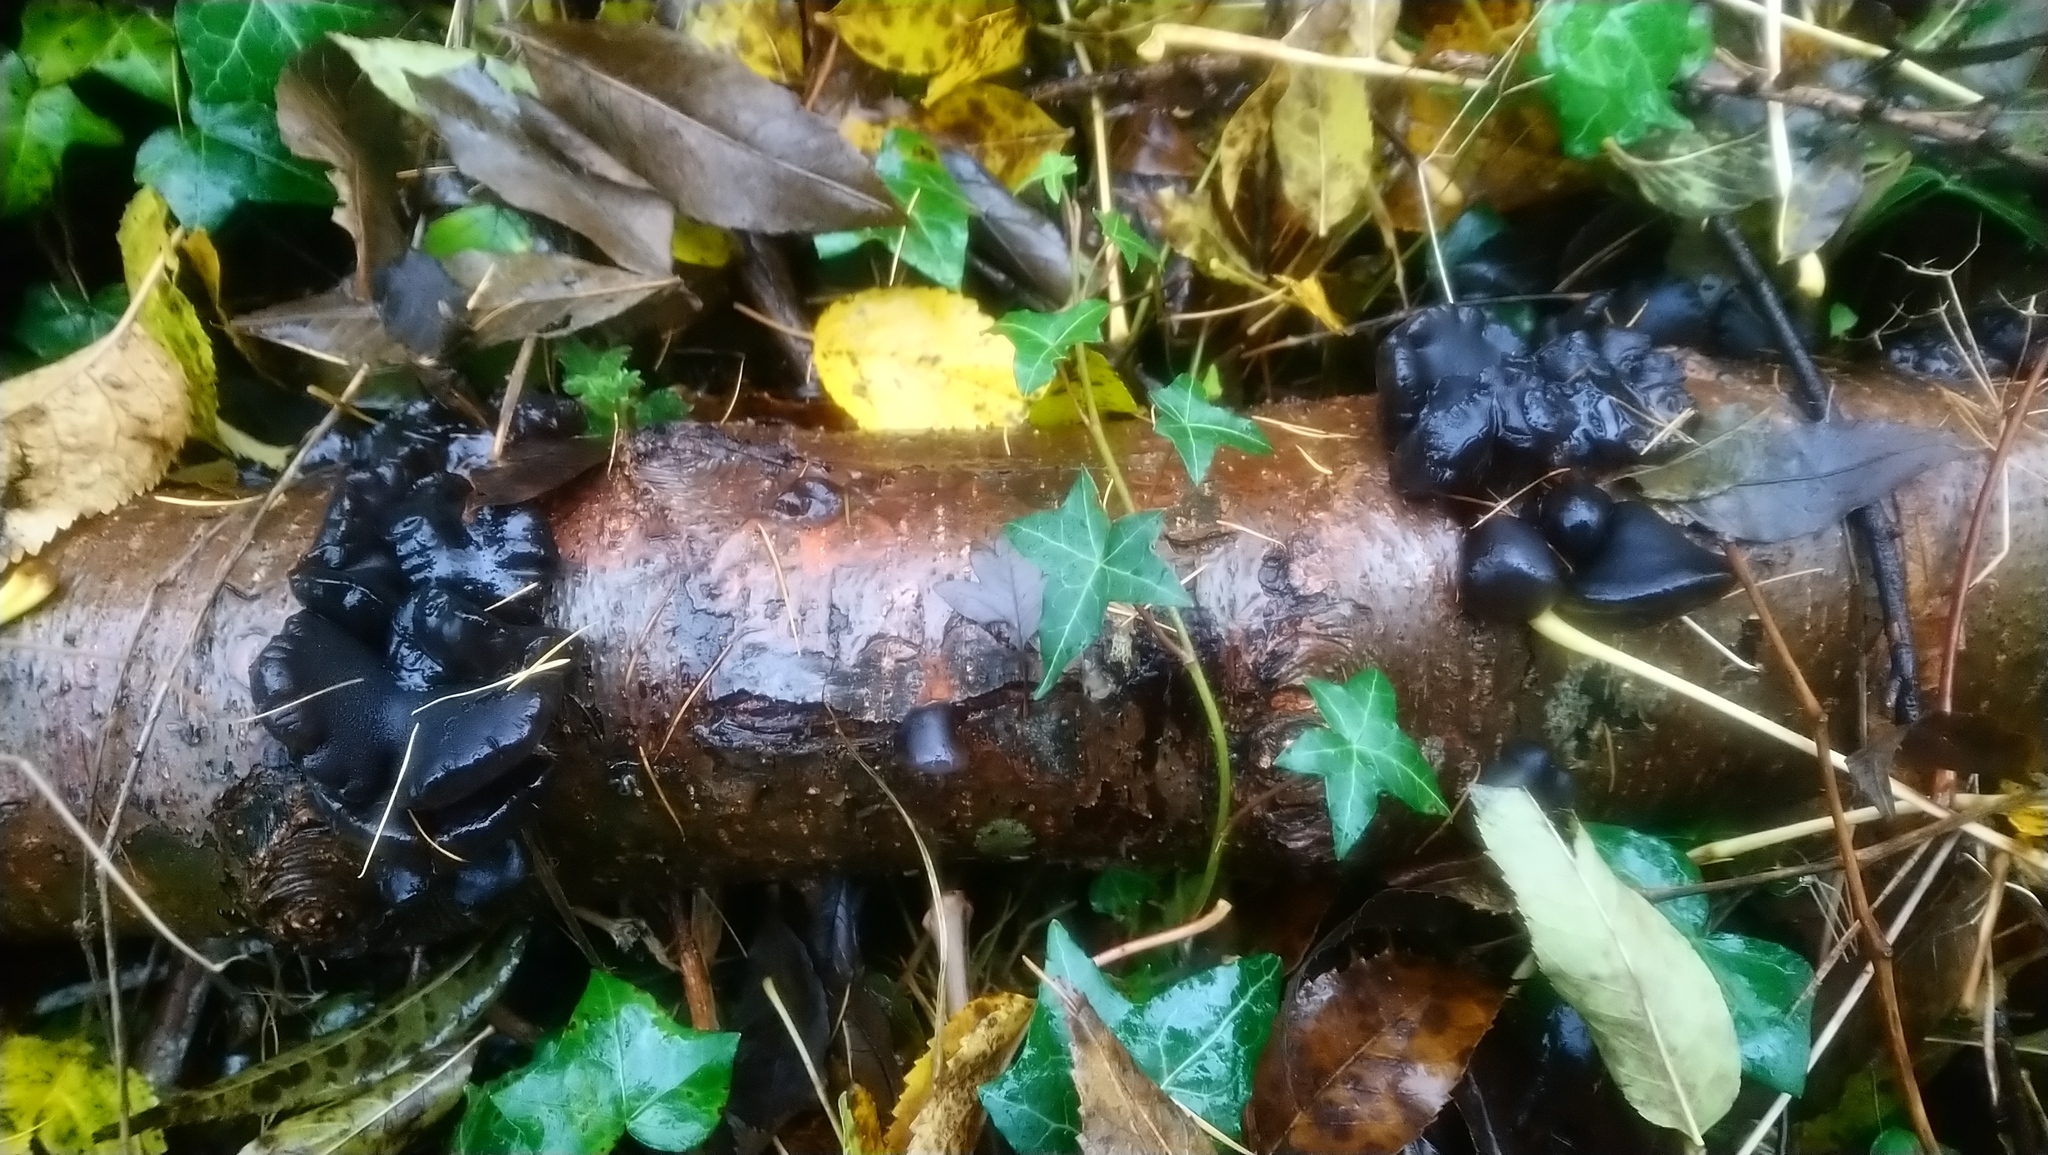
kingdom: Fungi
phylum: Basidiomycota
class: Agaricomycetes
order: Auriculariales
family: Auriculariaceae
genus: Exidia
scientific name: Exidia glandulosa
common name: Witches' butter
